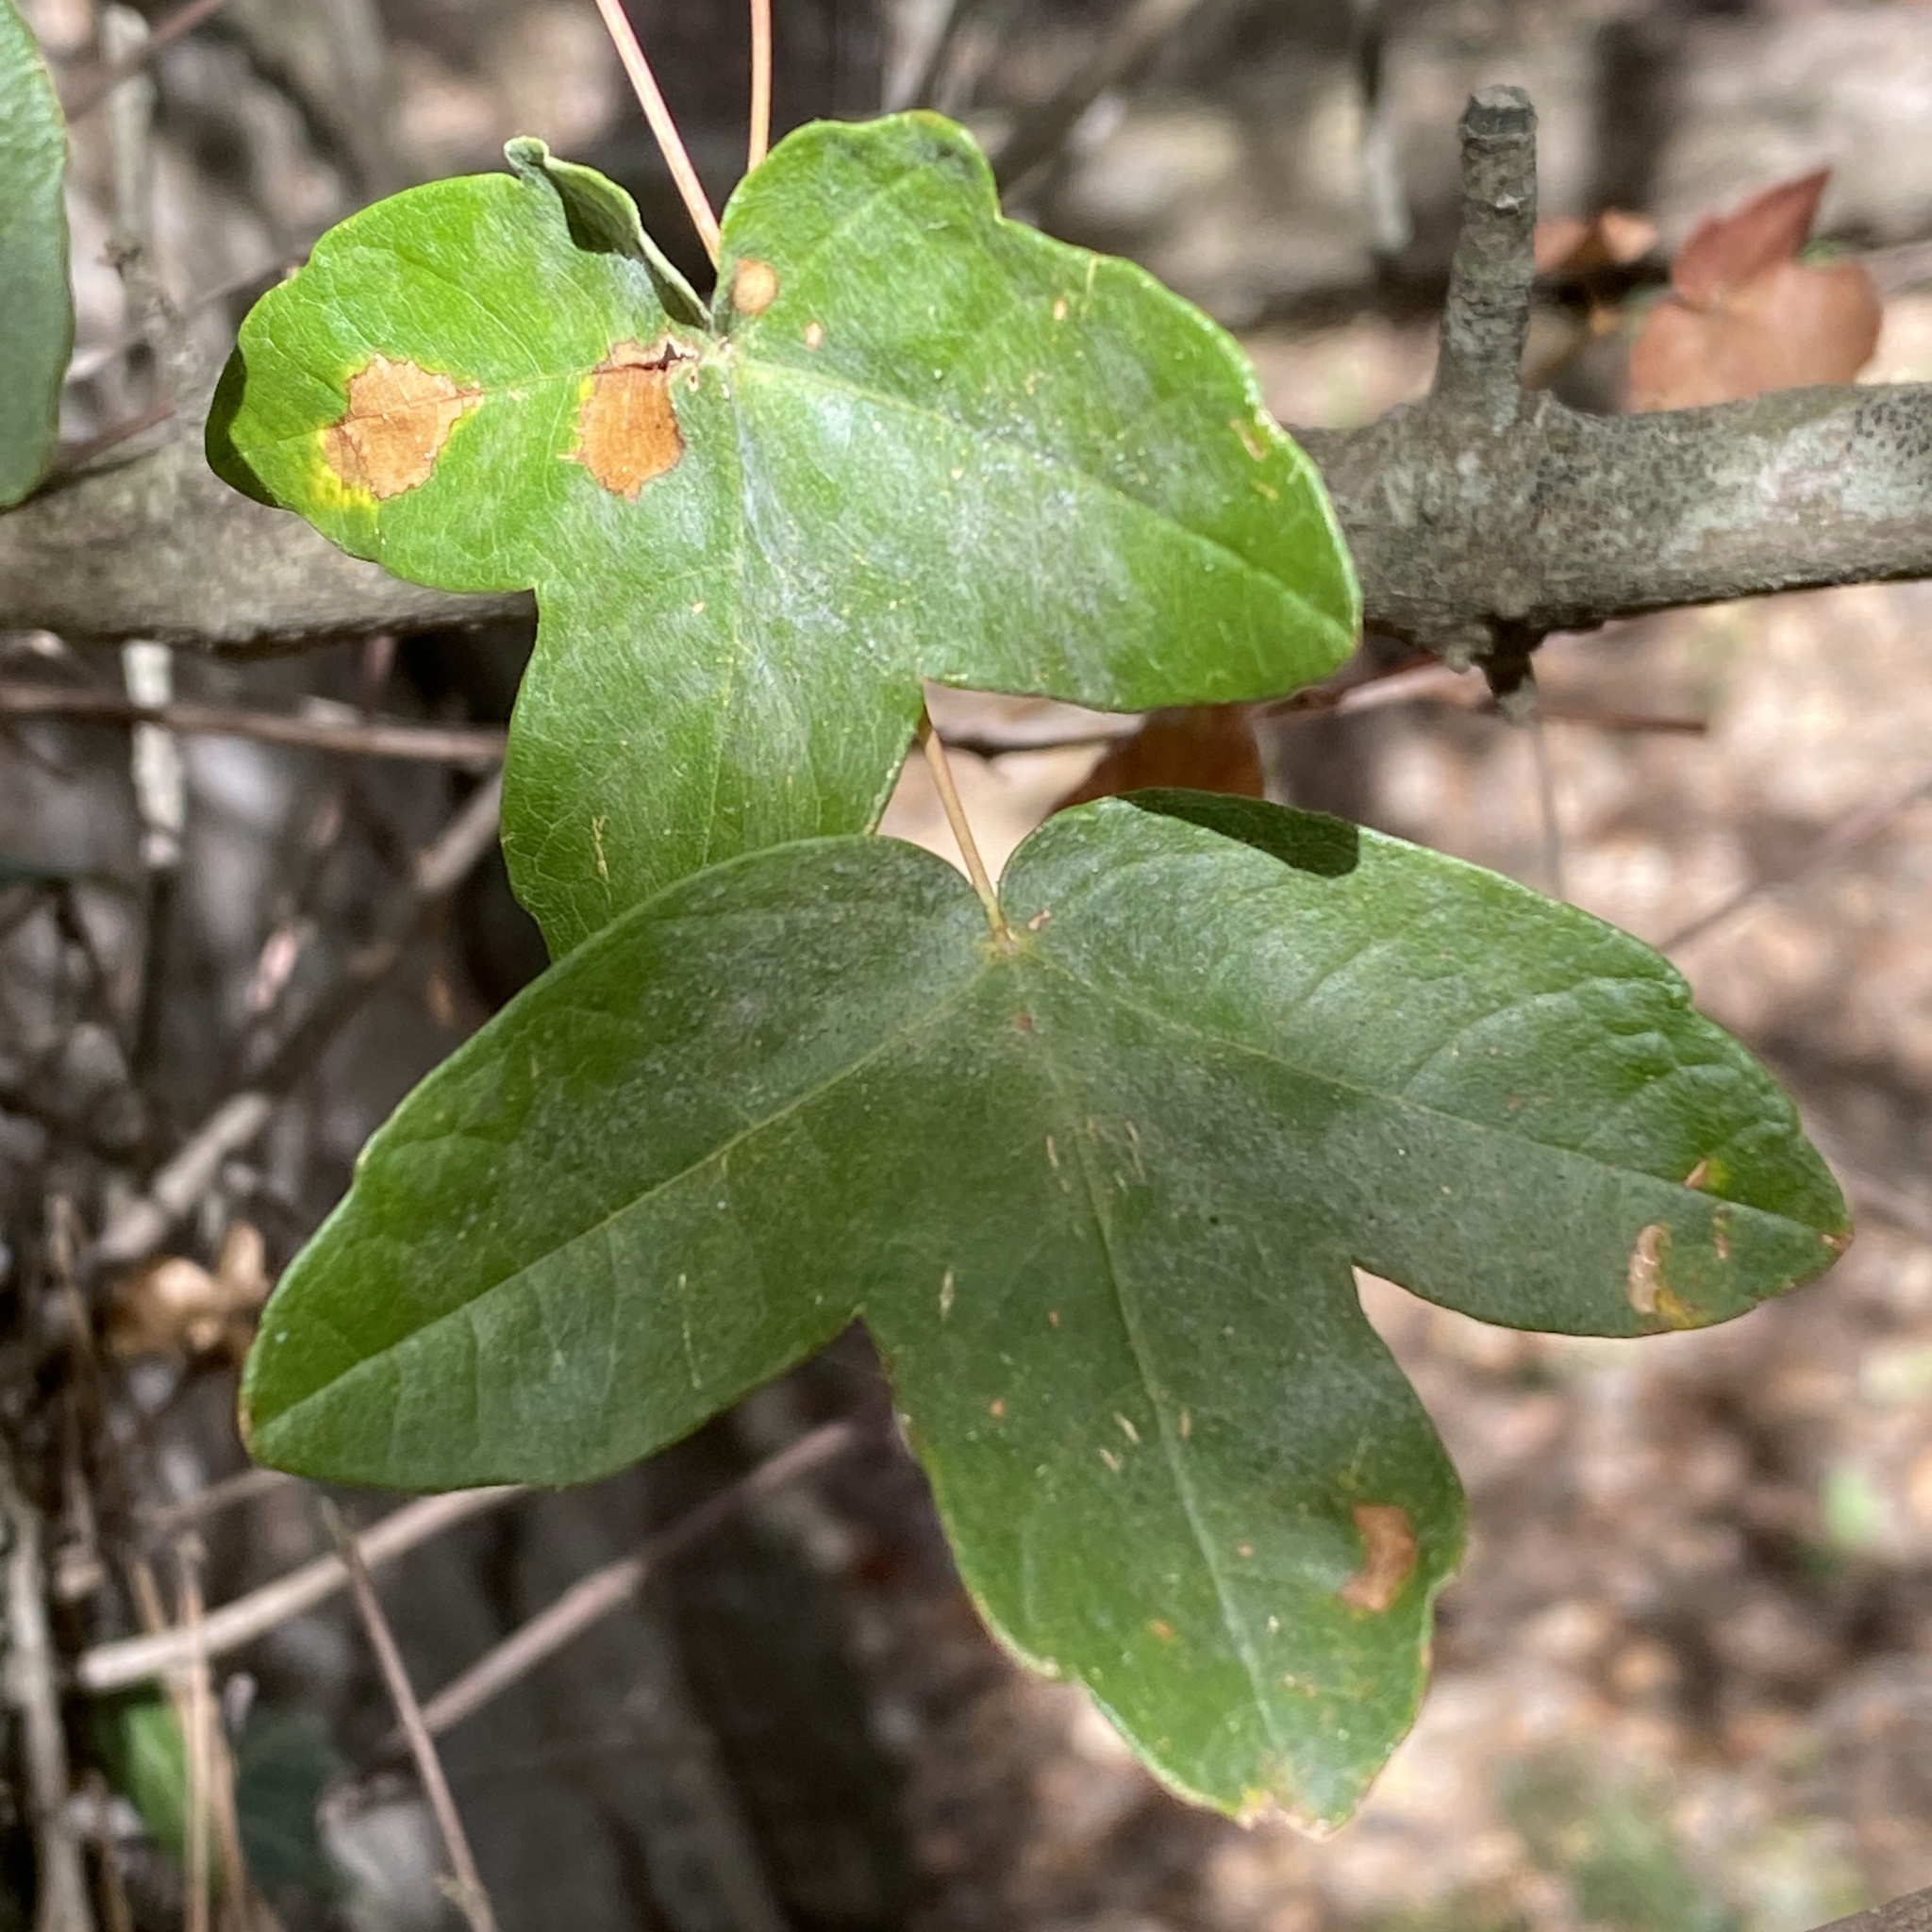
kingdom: Plantae
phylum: Tracheophyta
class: Magnoliopsida
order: Sapindales
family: Sapindaceae
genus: Acer
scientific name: Acer monspessulanum
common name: Montpellier maple
